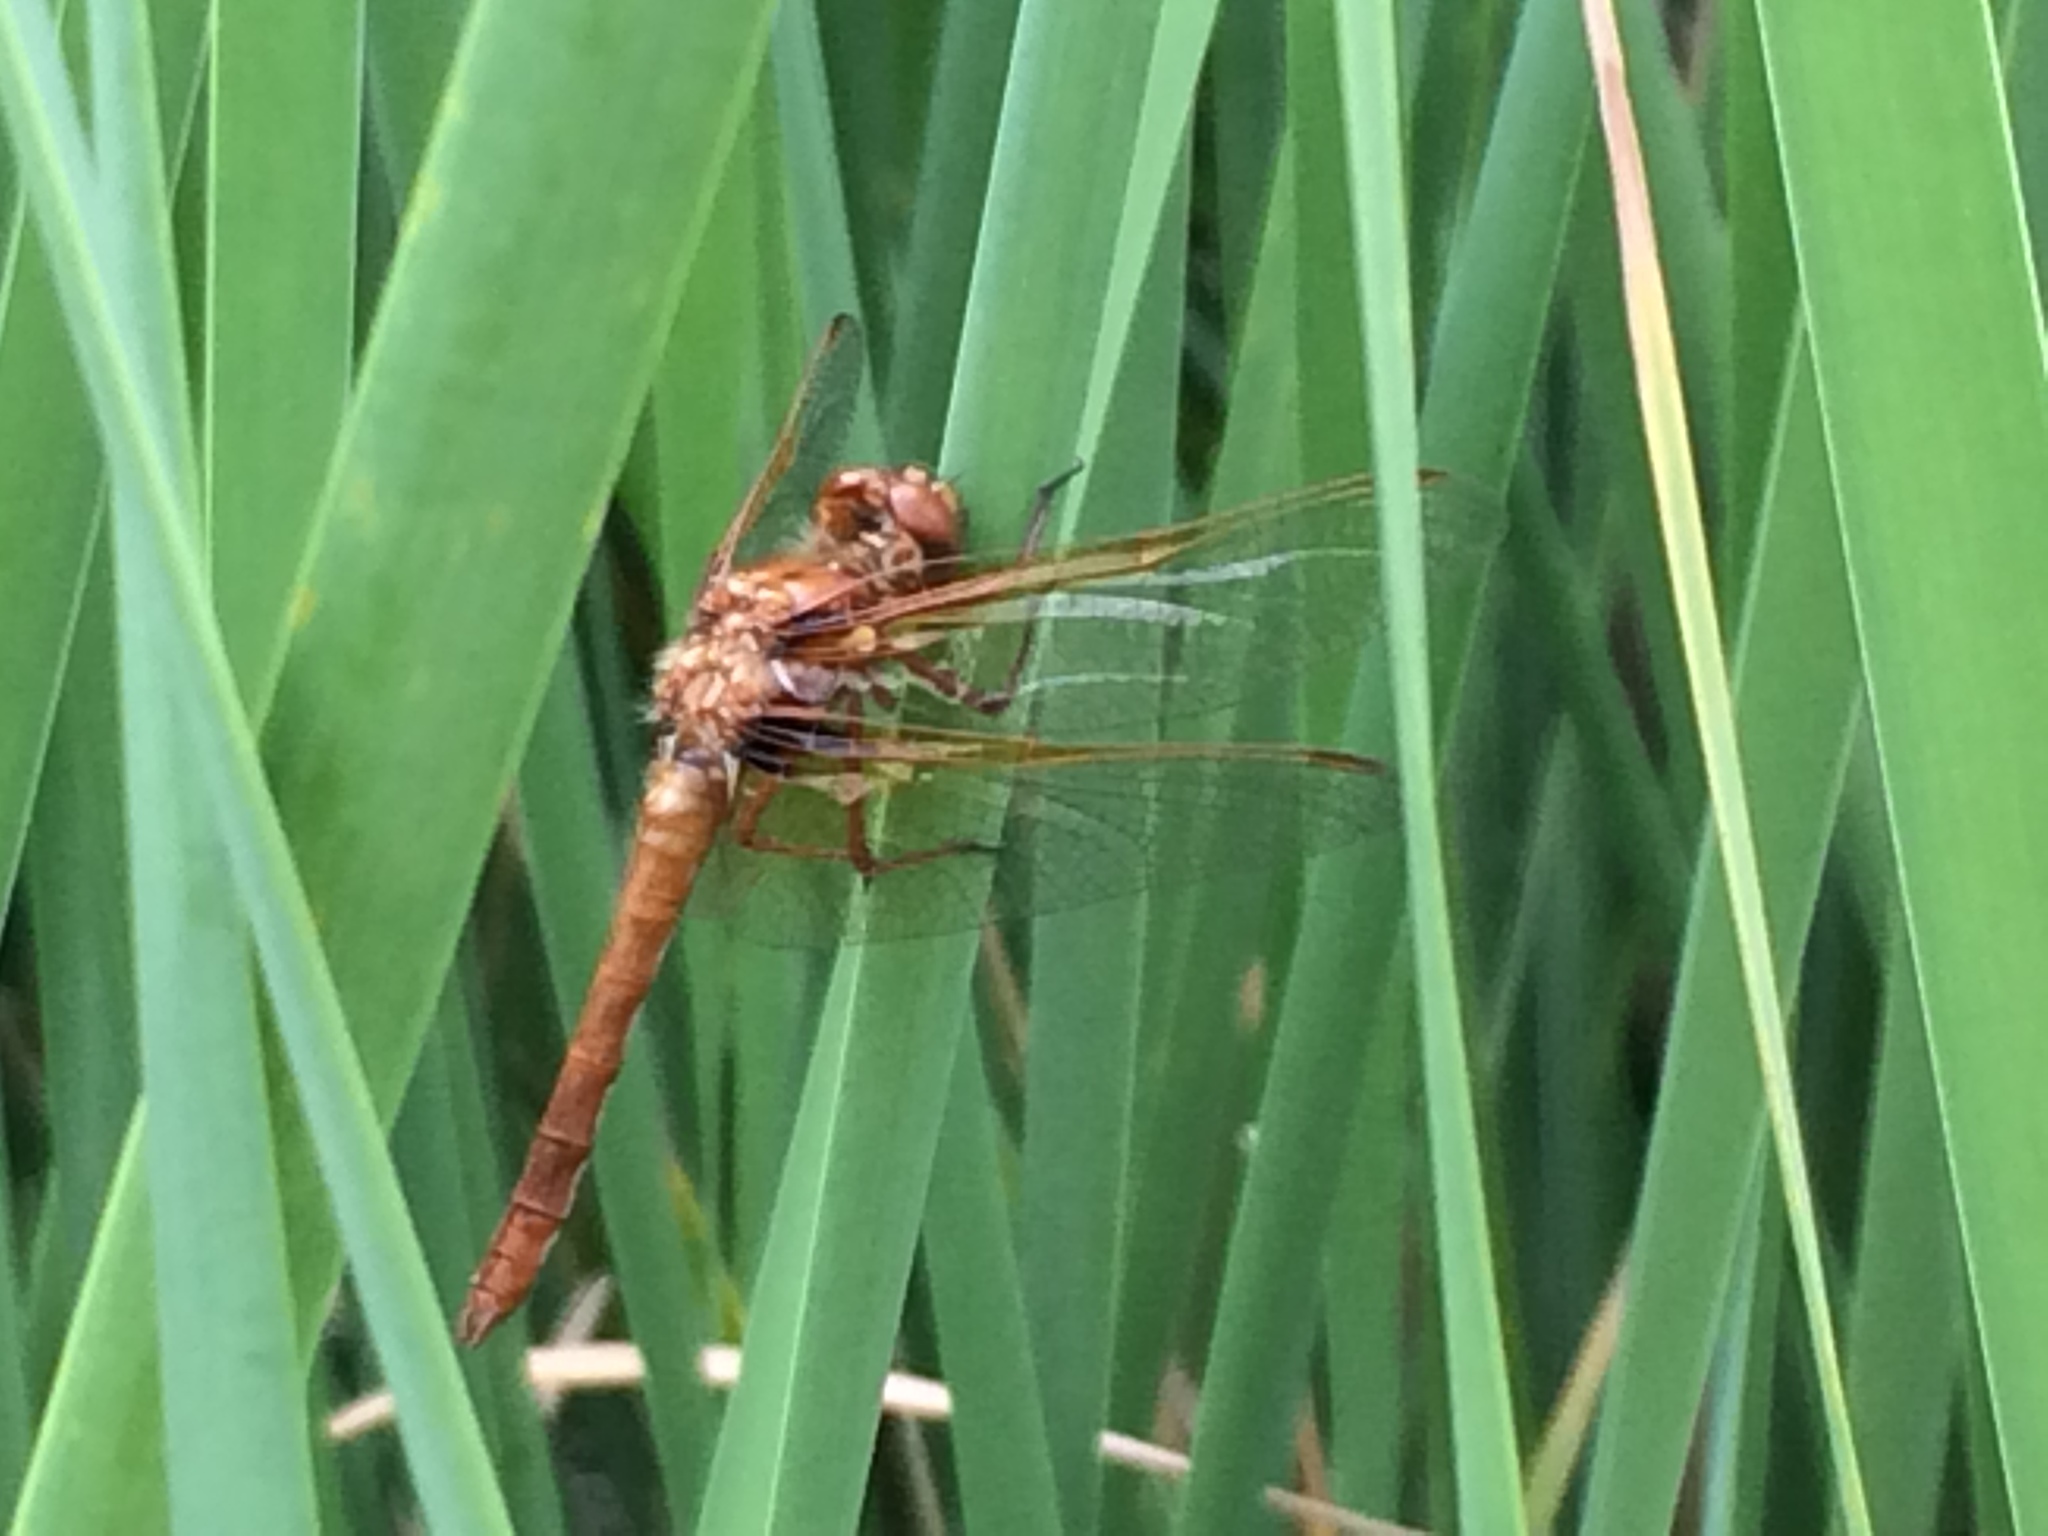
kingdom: Animalia
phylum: Arthropoda
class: Insecta
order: Odonata
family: Libellulidae
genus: Sympetrum
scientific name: Sympetrum illotum
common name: Cardinal meadowhawk
